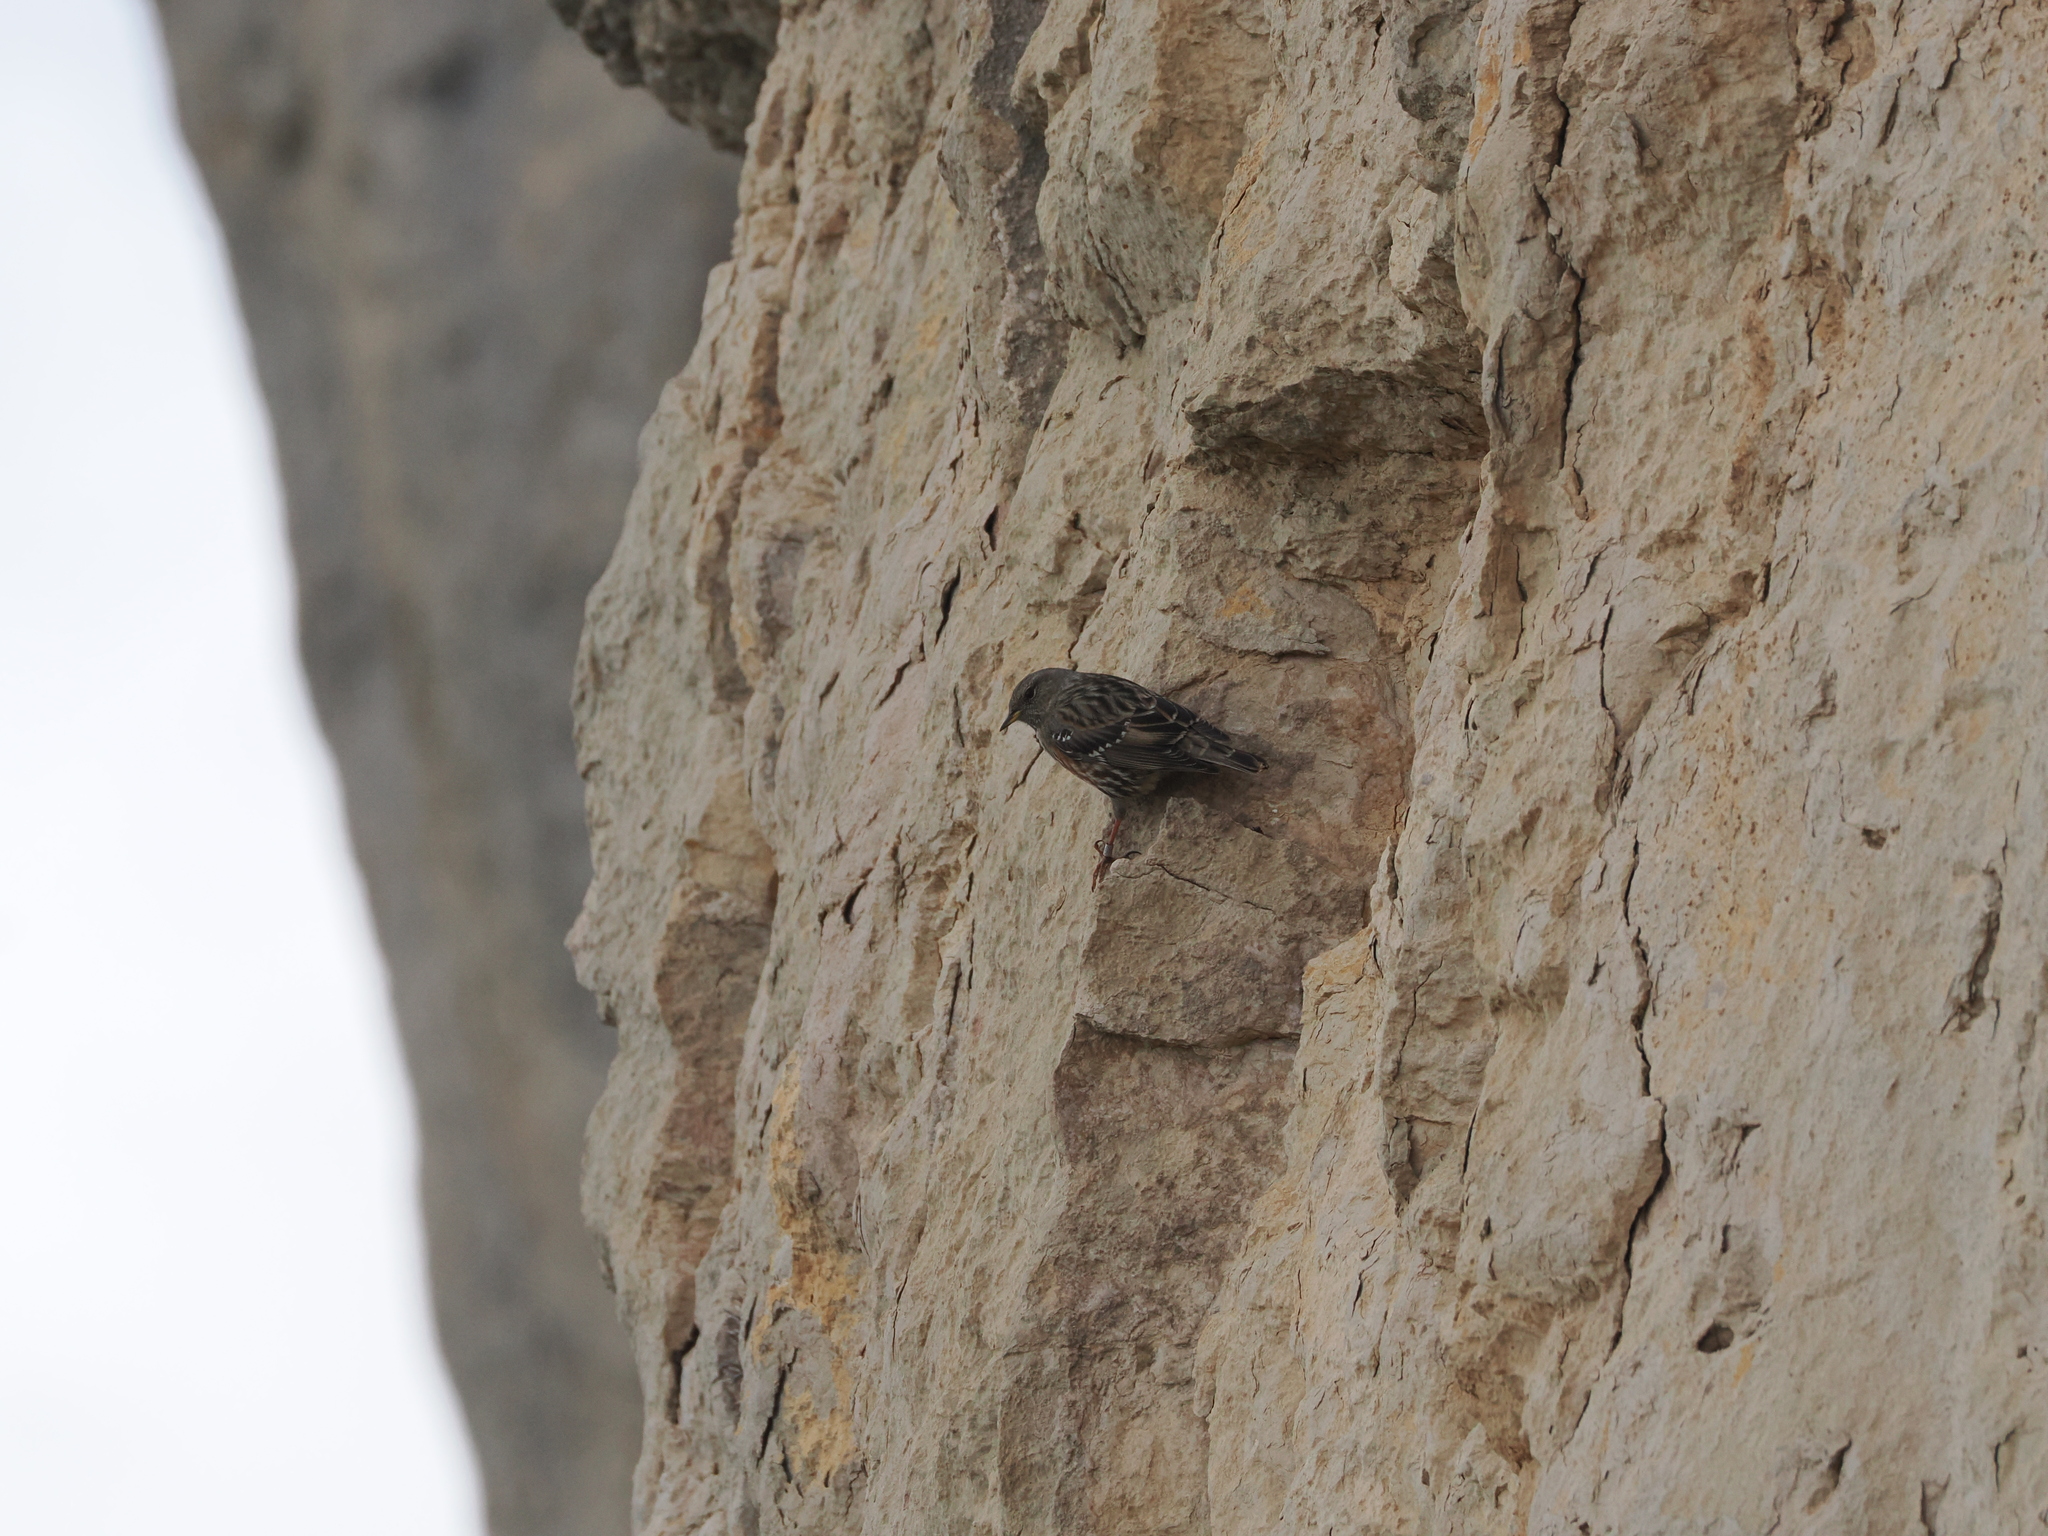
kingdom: Animalia
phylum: Chordata
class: Aves
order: Passeriformes
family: Prunellidae
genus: Prunella
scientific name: Prunella collaris
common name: Alpine accentor
